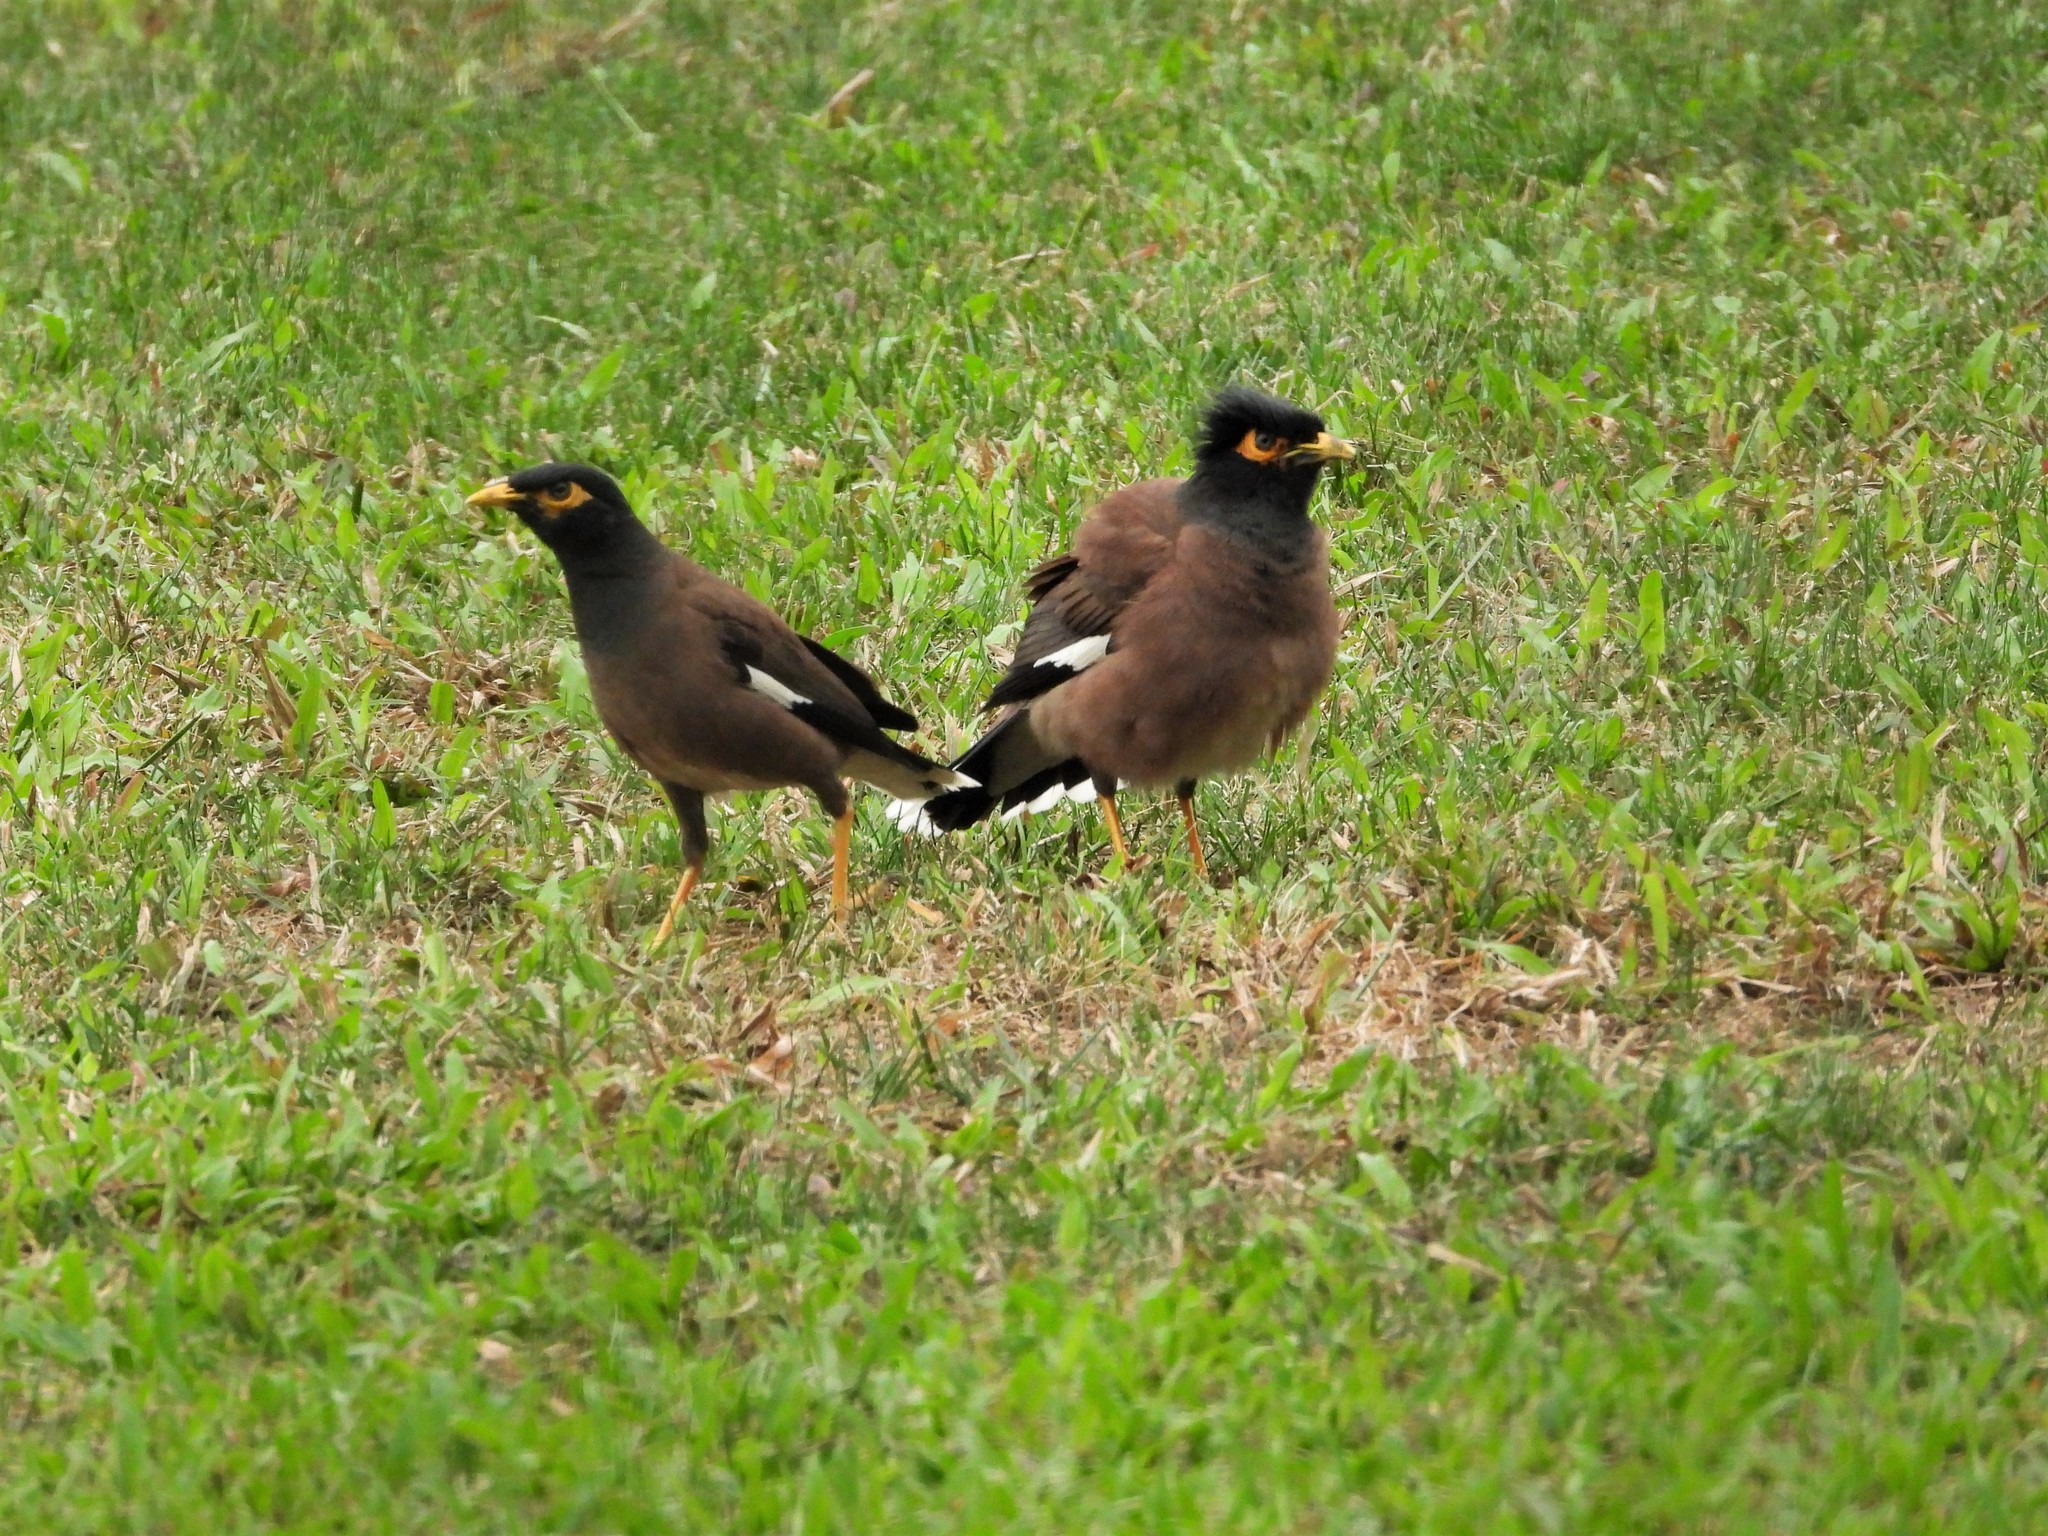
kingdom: Animalia
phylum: Chordata
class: Aves
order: Passeriformes
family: Sturnidae
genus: Acridotheres
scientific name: Acridotheres tristis
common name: Common myna
